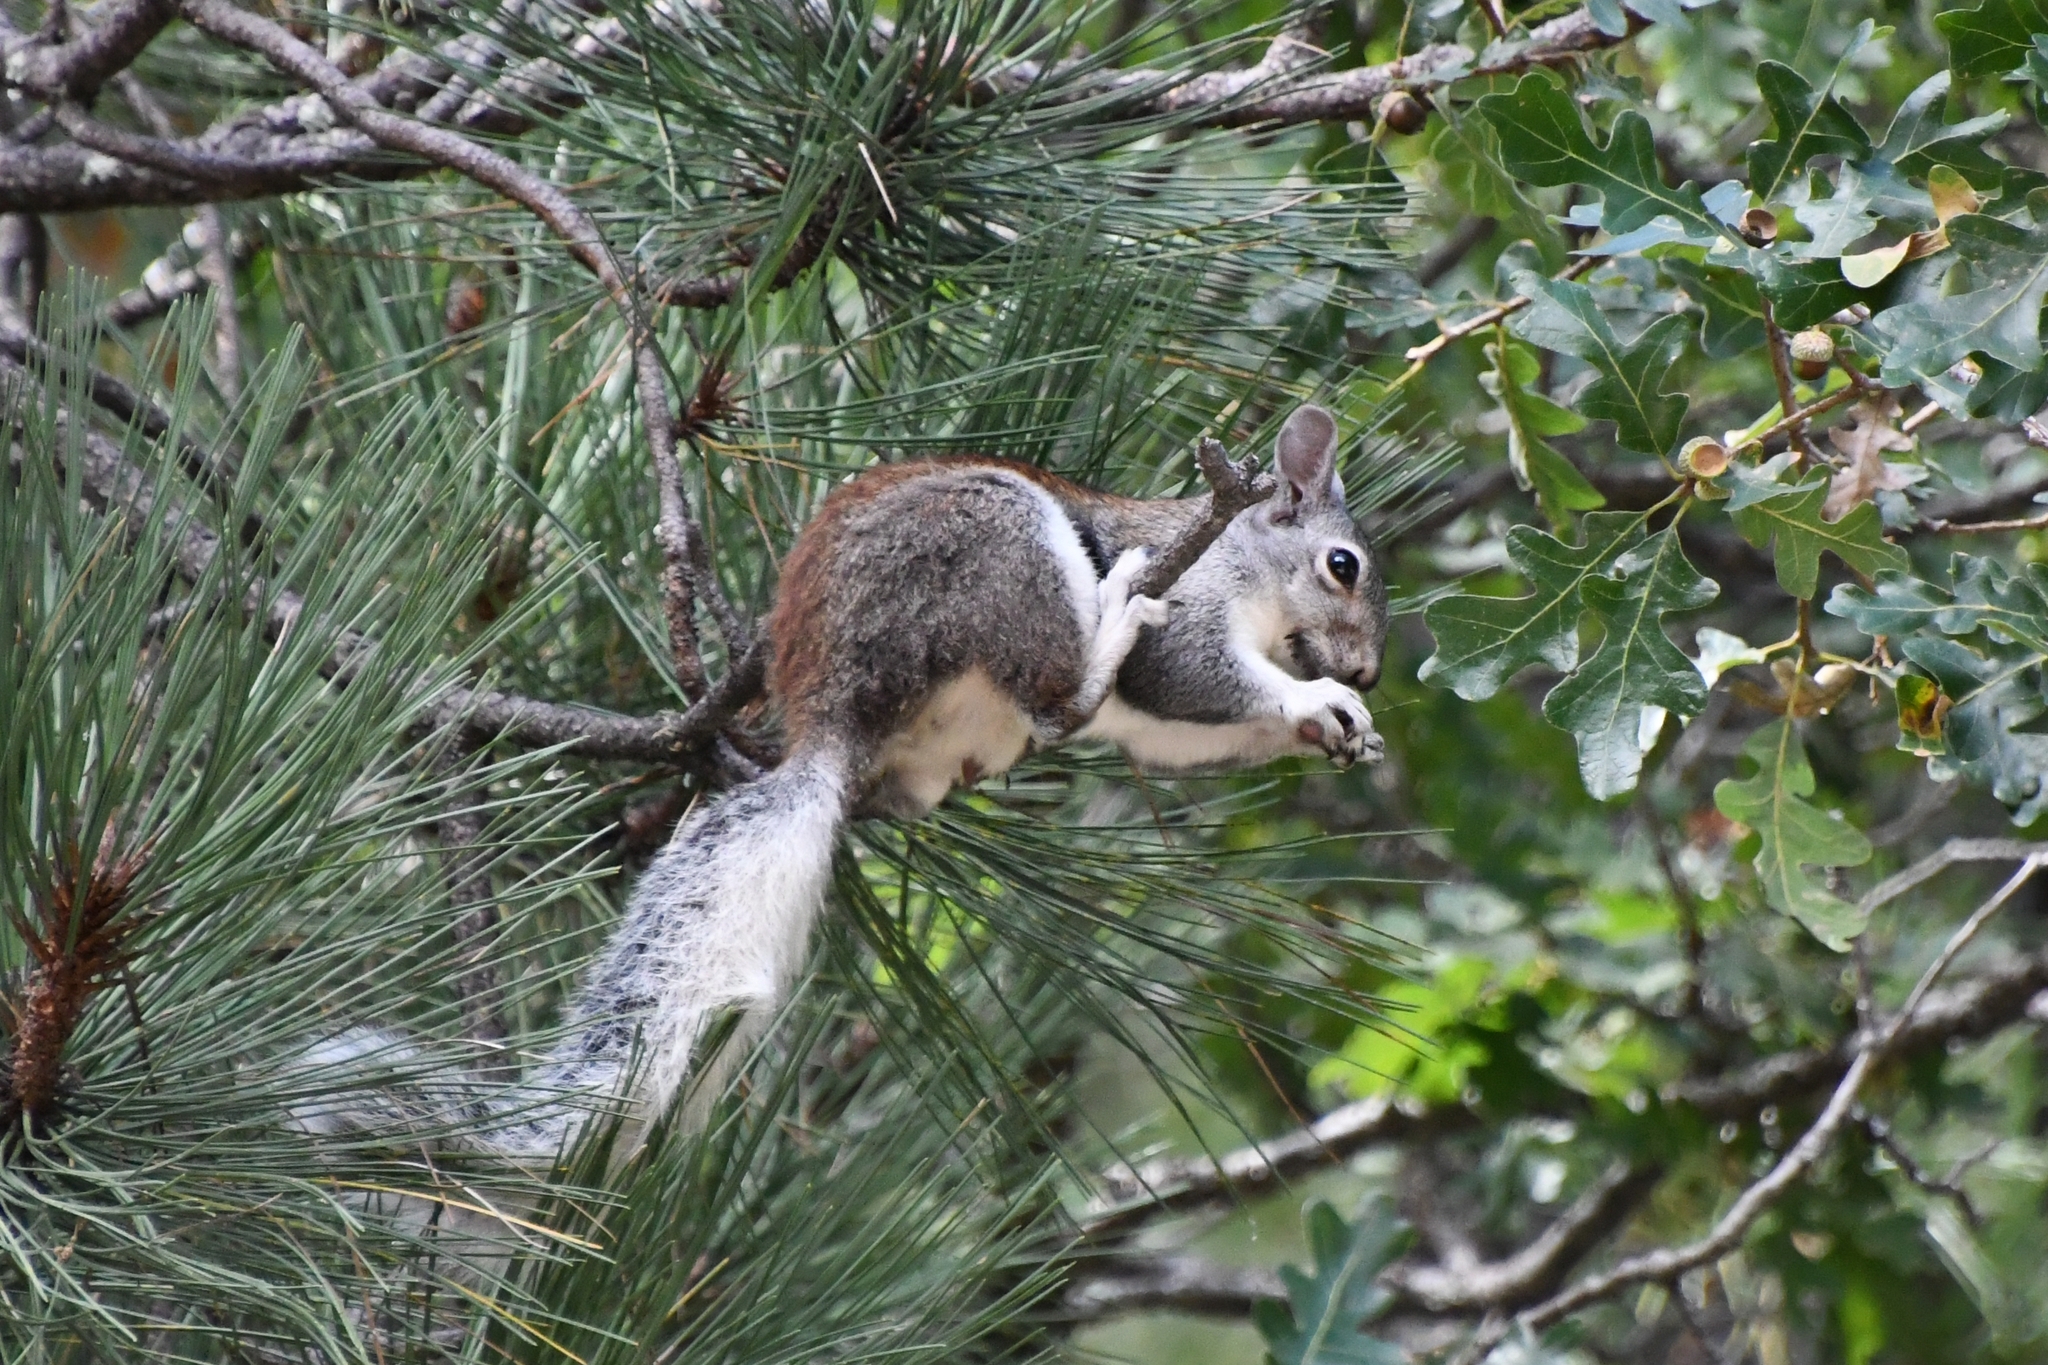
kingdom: Animalia
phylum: Chordata
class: Mammalia
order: Rodentia
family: Sciuridae
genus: Sciurus
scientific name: Sciurus aberti
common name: Abert's squirrel
